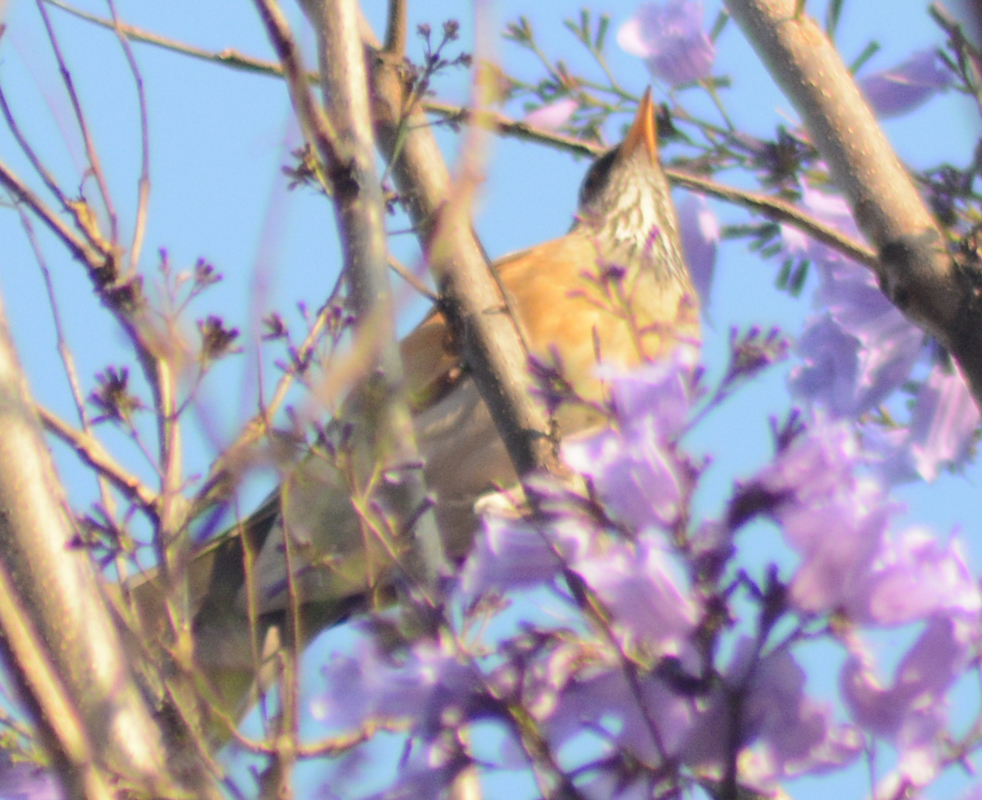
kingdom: Animalia
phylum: Chordata
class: Aves
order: Passeriformes
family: Turdidae
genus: Turdus
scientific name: Turdus rufopalliatus
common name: Rufous-backed robin
